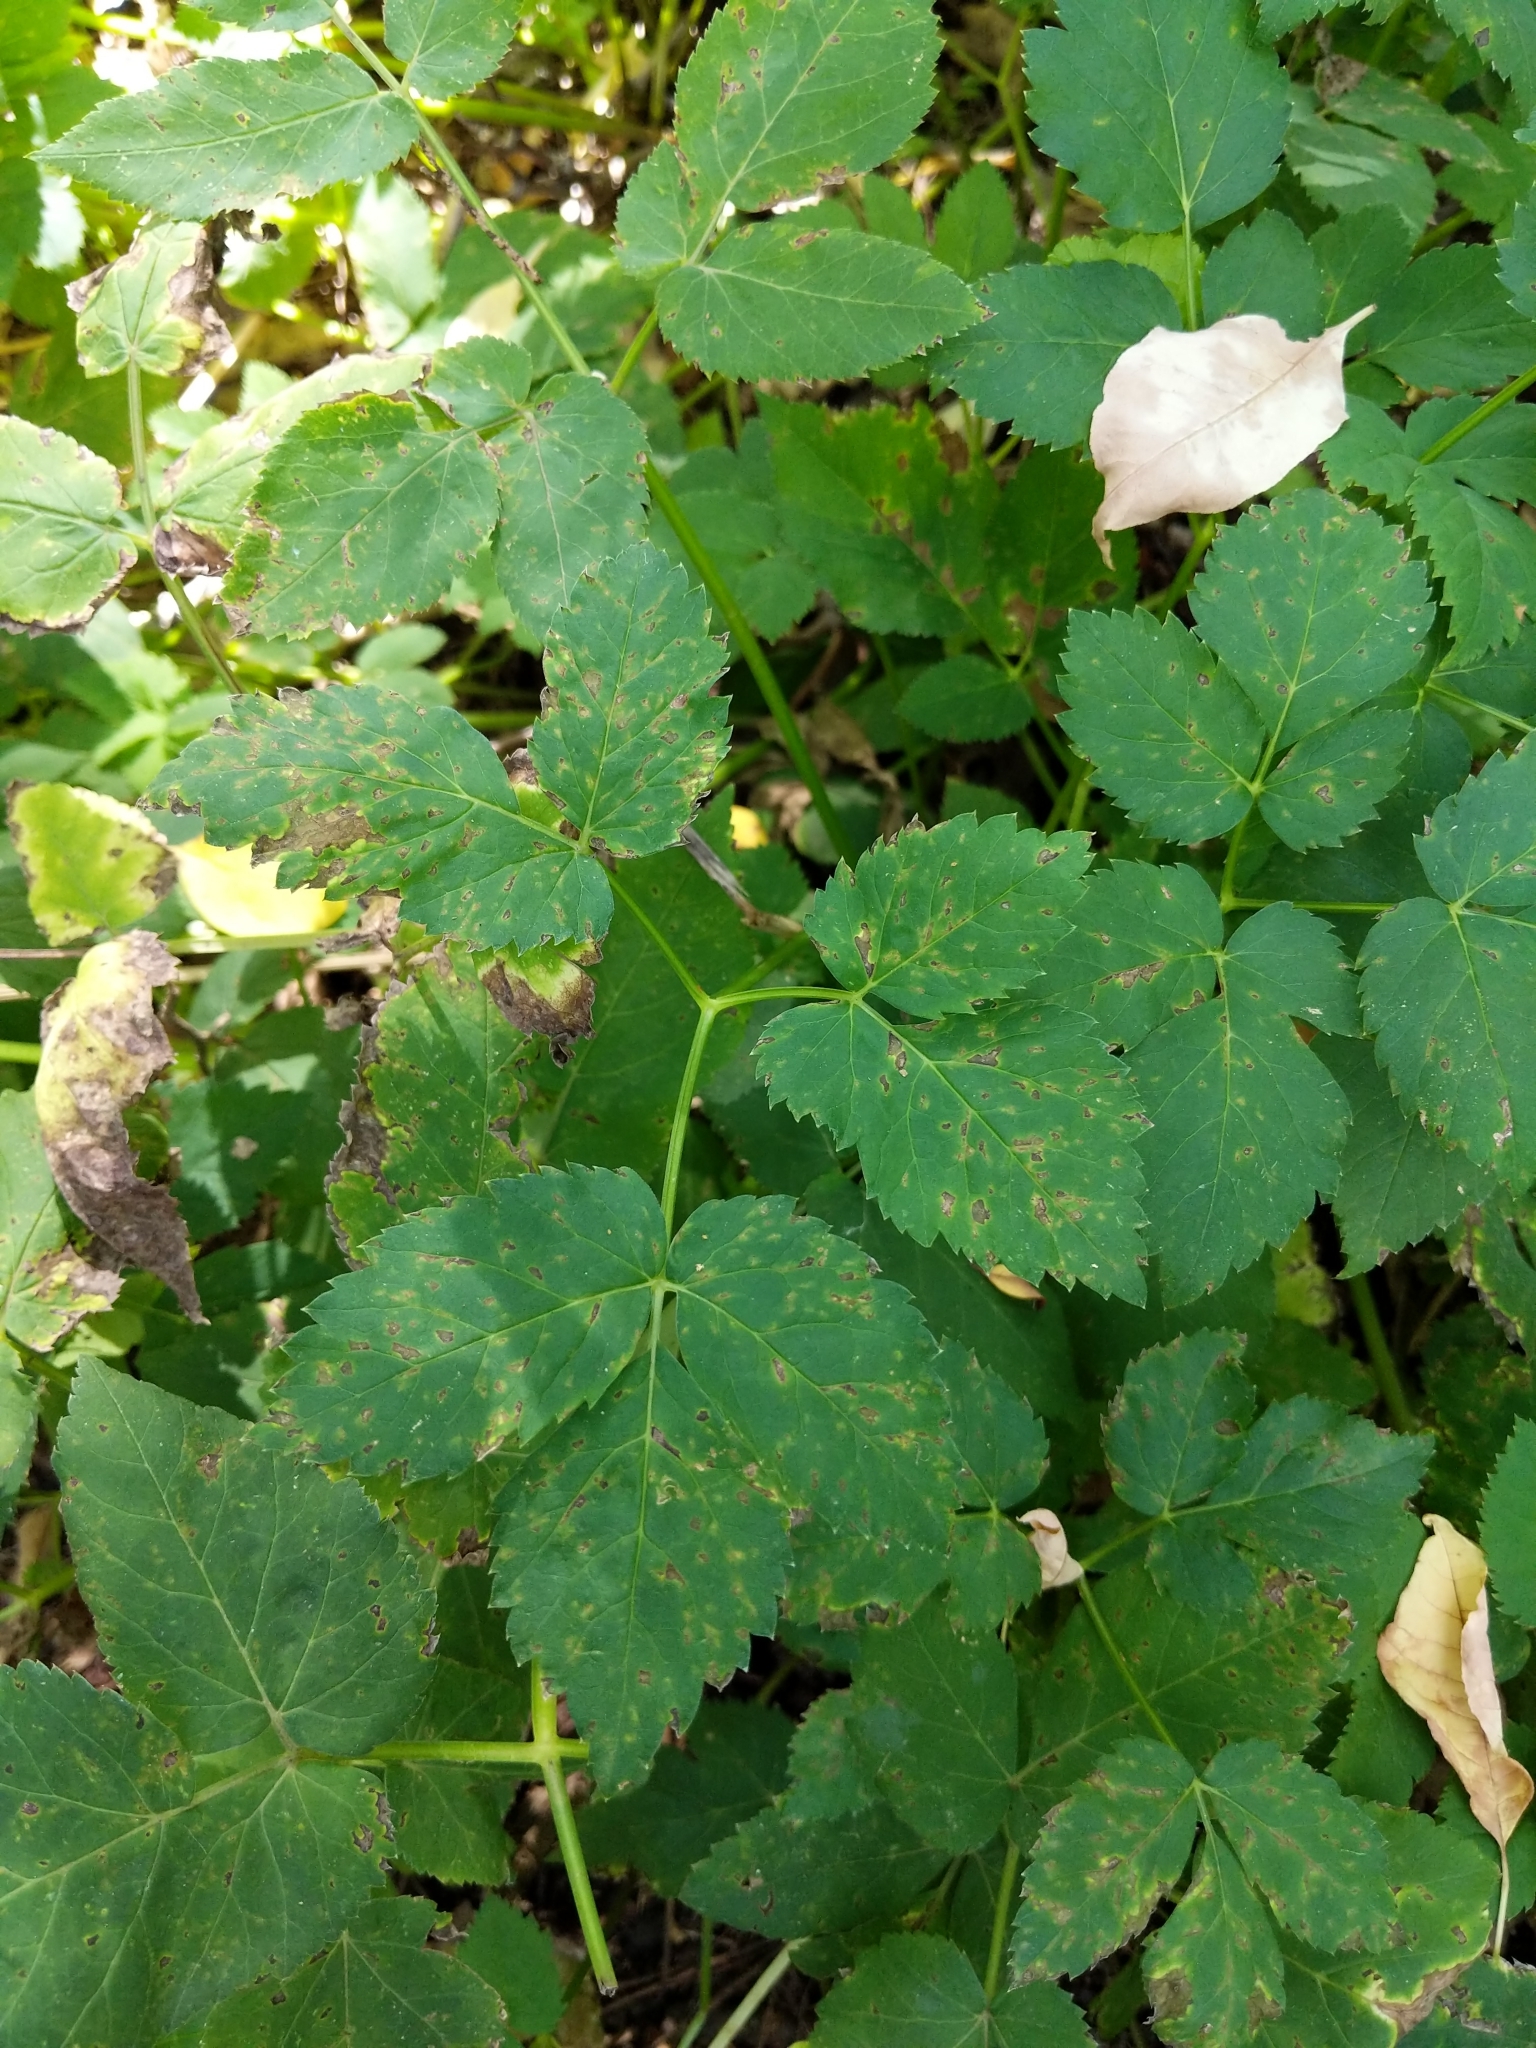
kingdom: Plantae
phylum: Tracheophyta
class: Magnoliopsida
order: Apiales
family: Apiaceae
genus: Aegopodium
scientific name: Aegopodium podagraria
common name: Ground-elder
